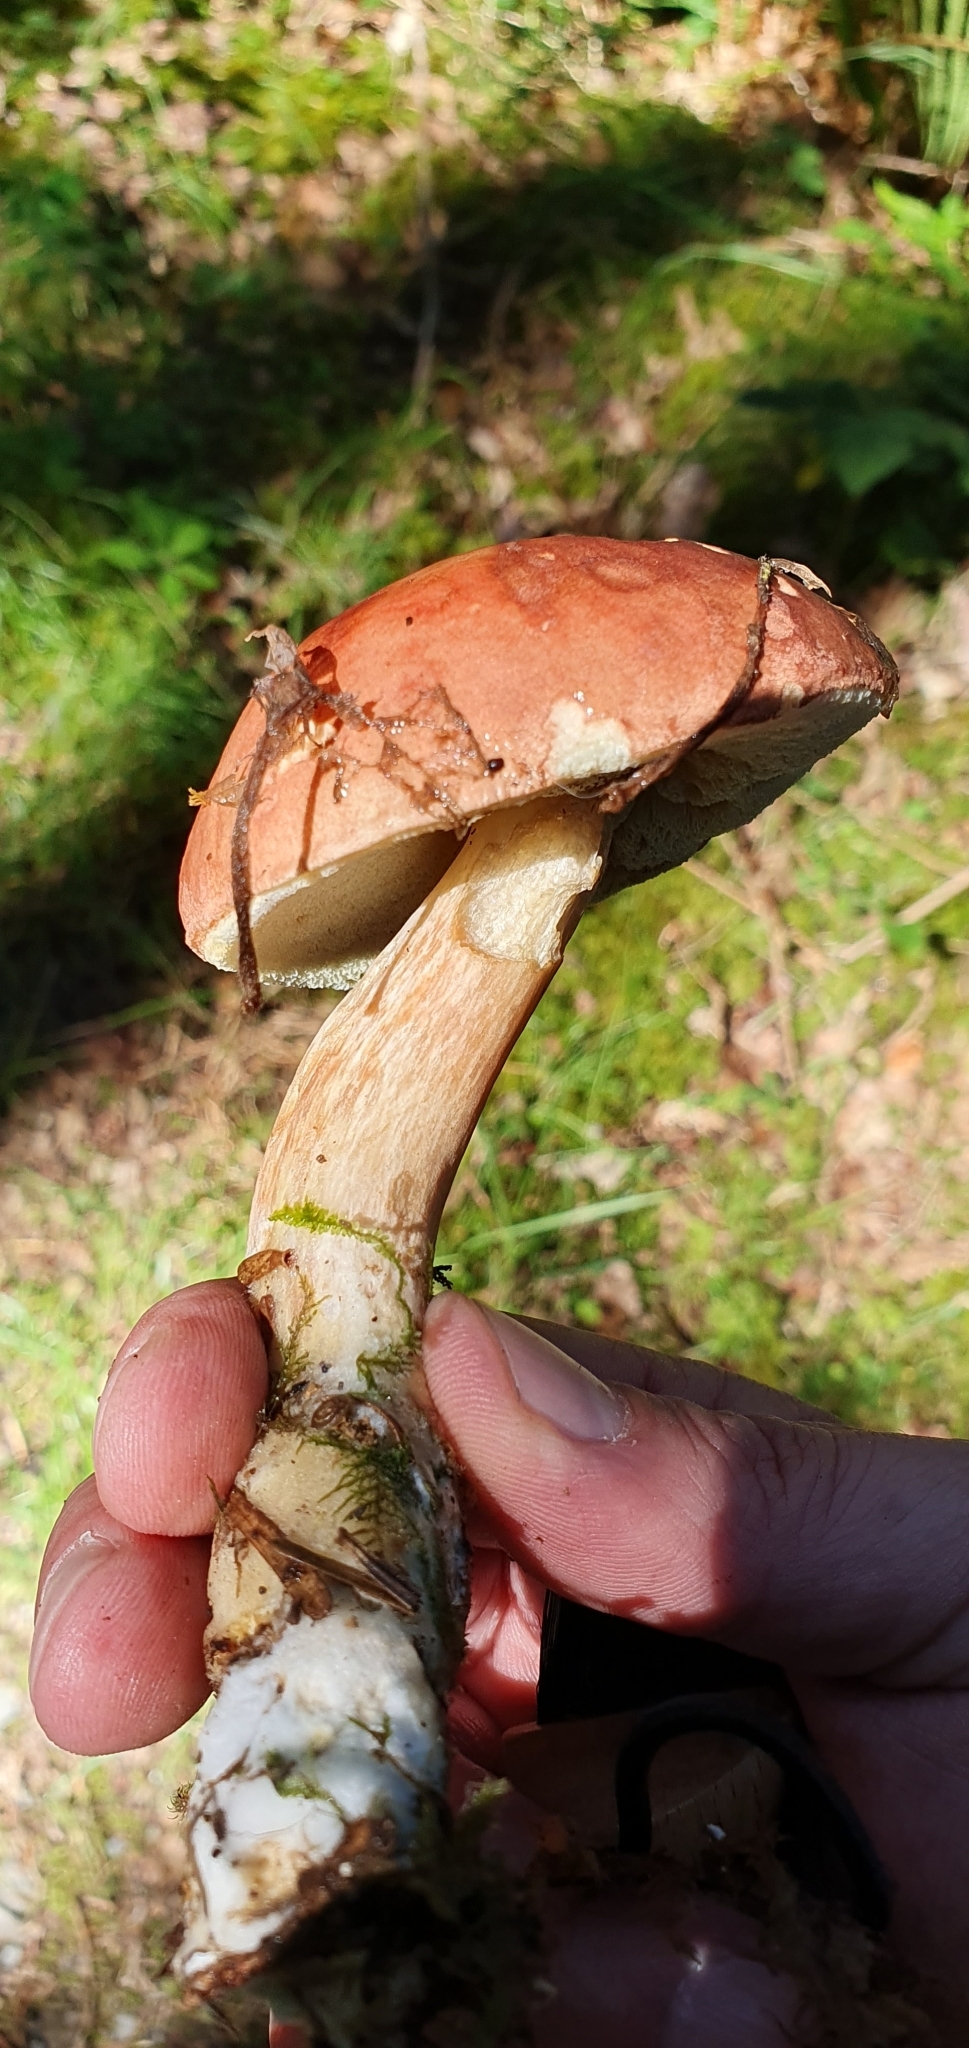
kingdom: Fungi
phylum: Basidiomycota
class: Agaricomycetes
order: Boletales
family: Boletaceae
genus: Imleria
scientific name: Imleria badia
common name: Bay bolete
